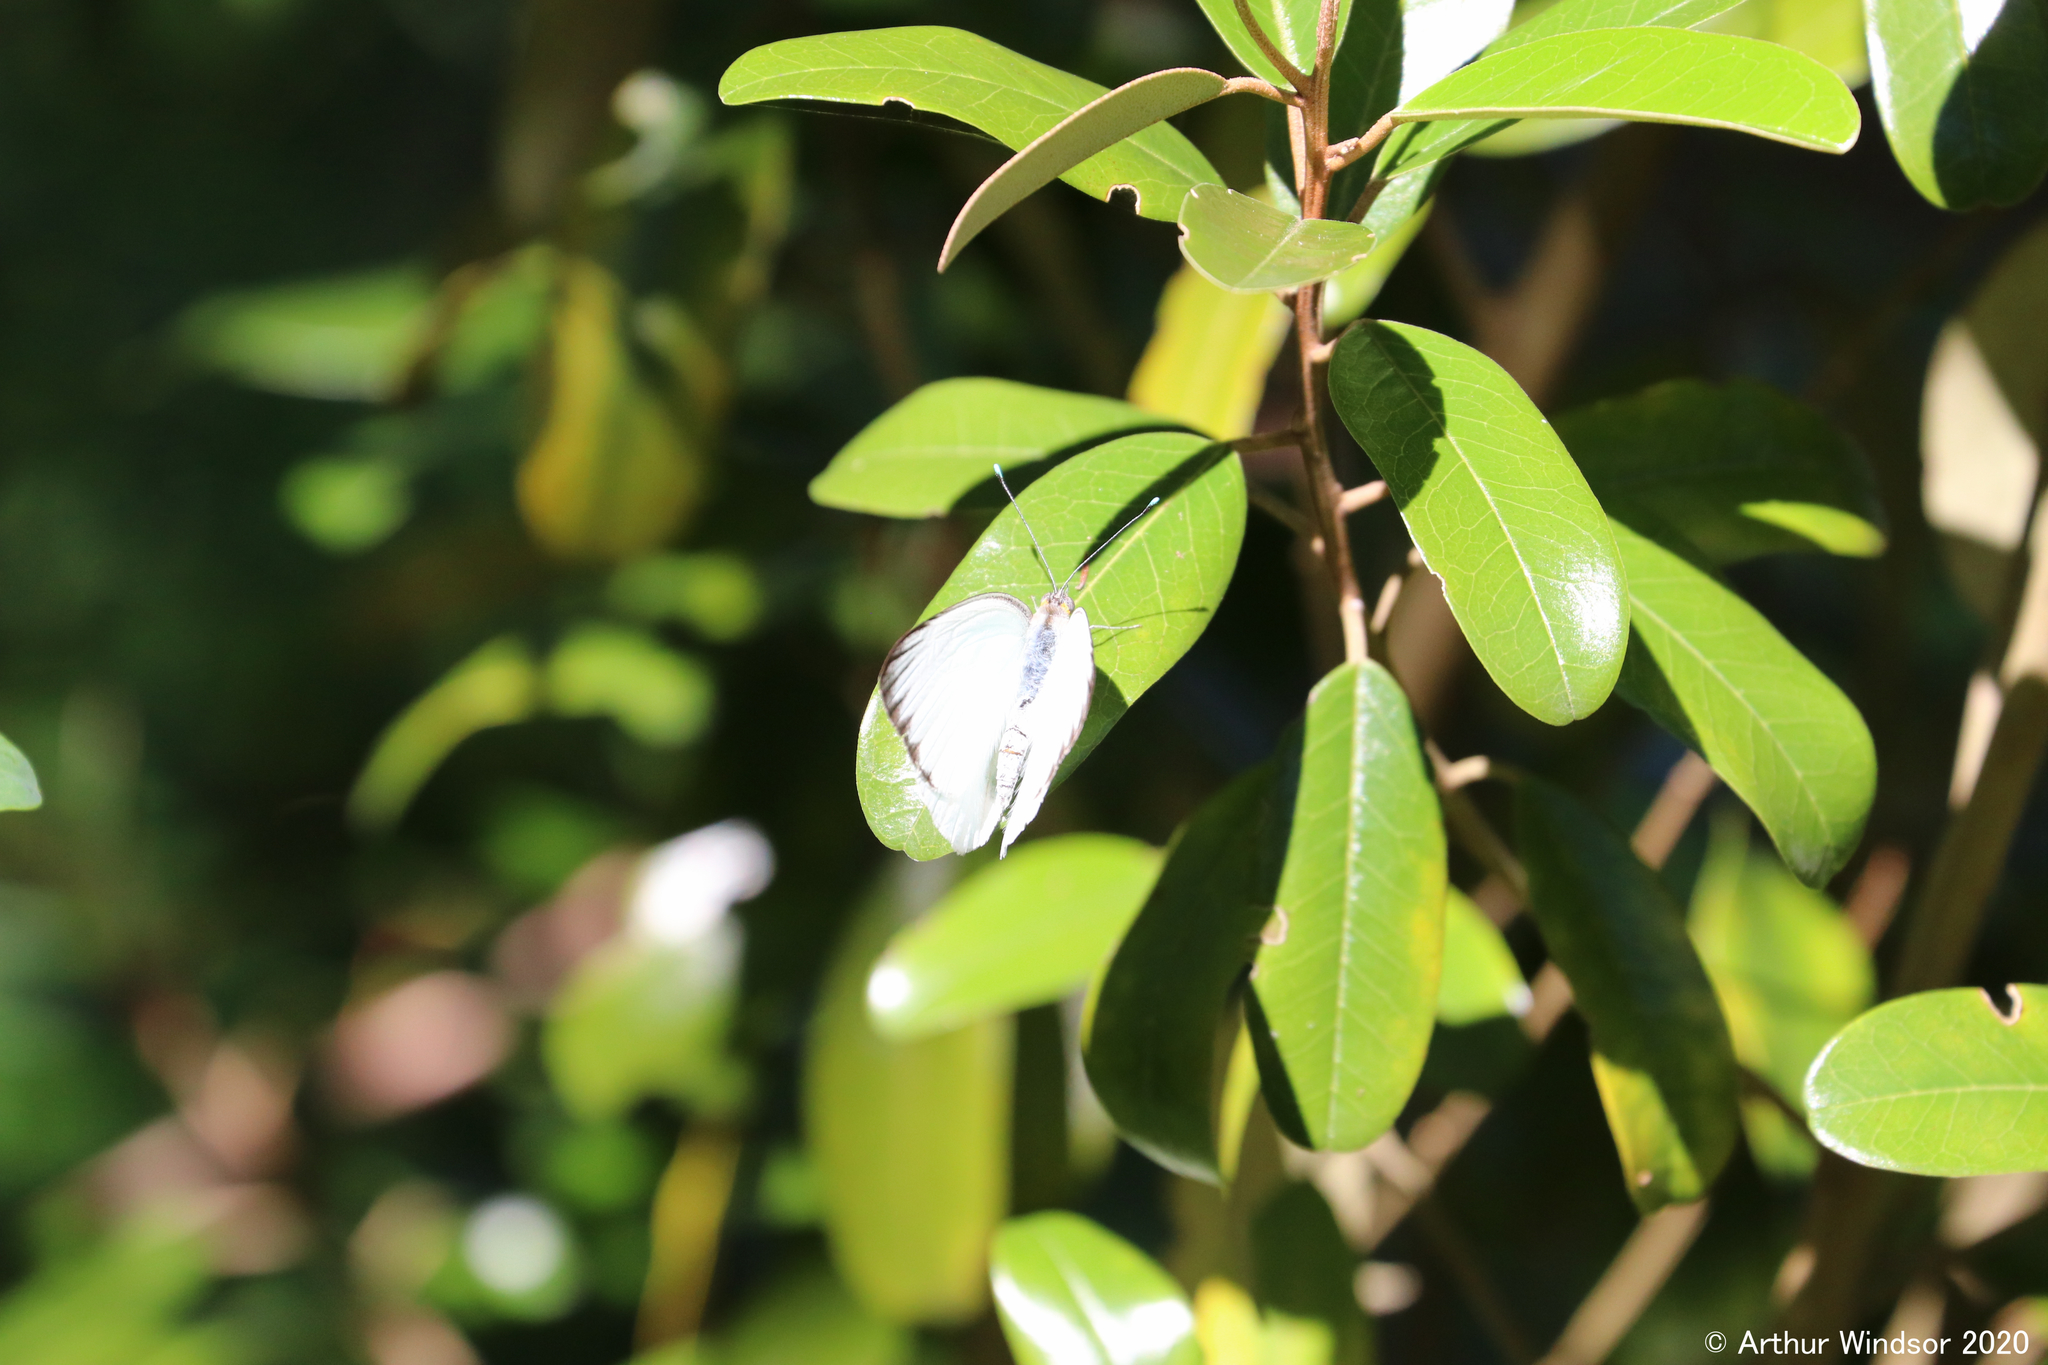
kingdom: Animalia
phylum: Arthropoda
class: Insecta
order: Lepidoptera
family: Pieridae
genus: Ascia
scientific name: Ascia monuste
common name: Great southern white
